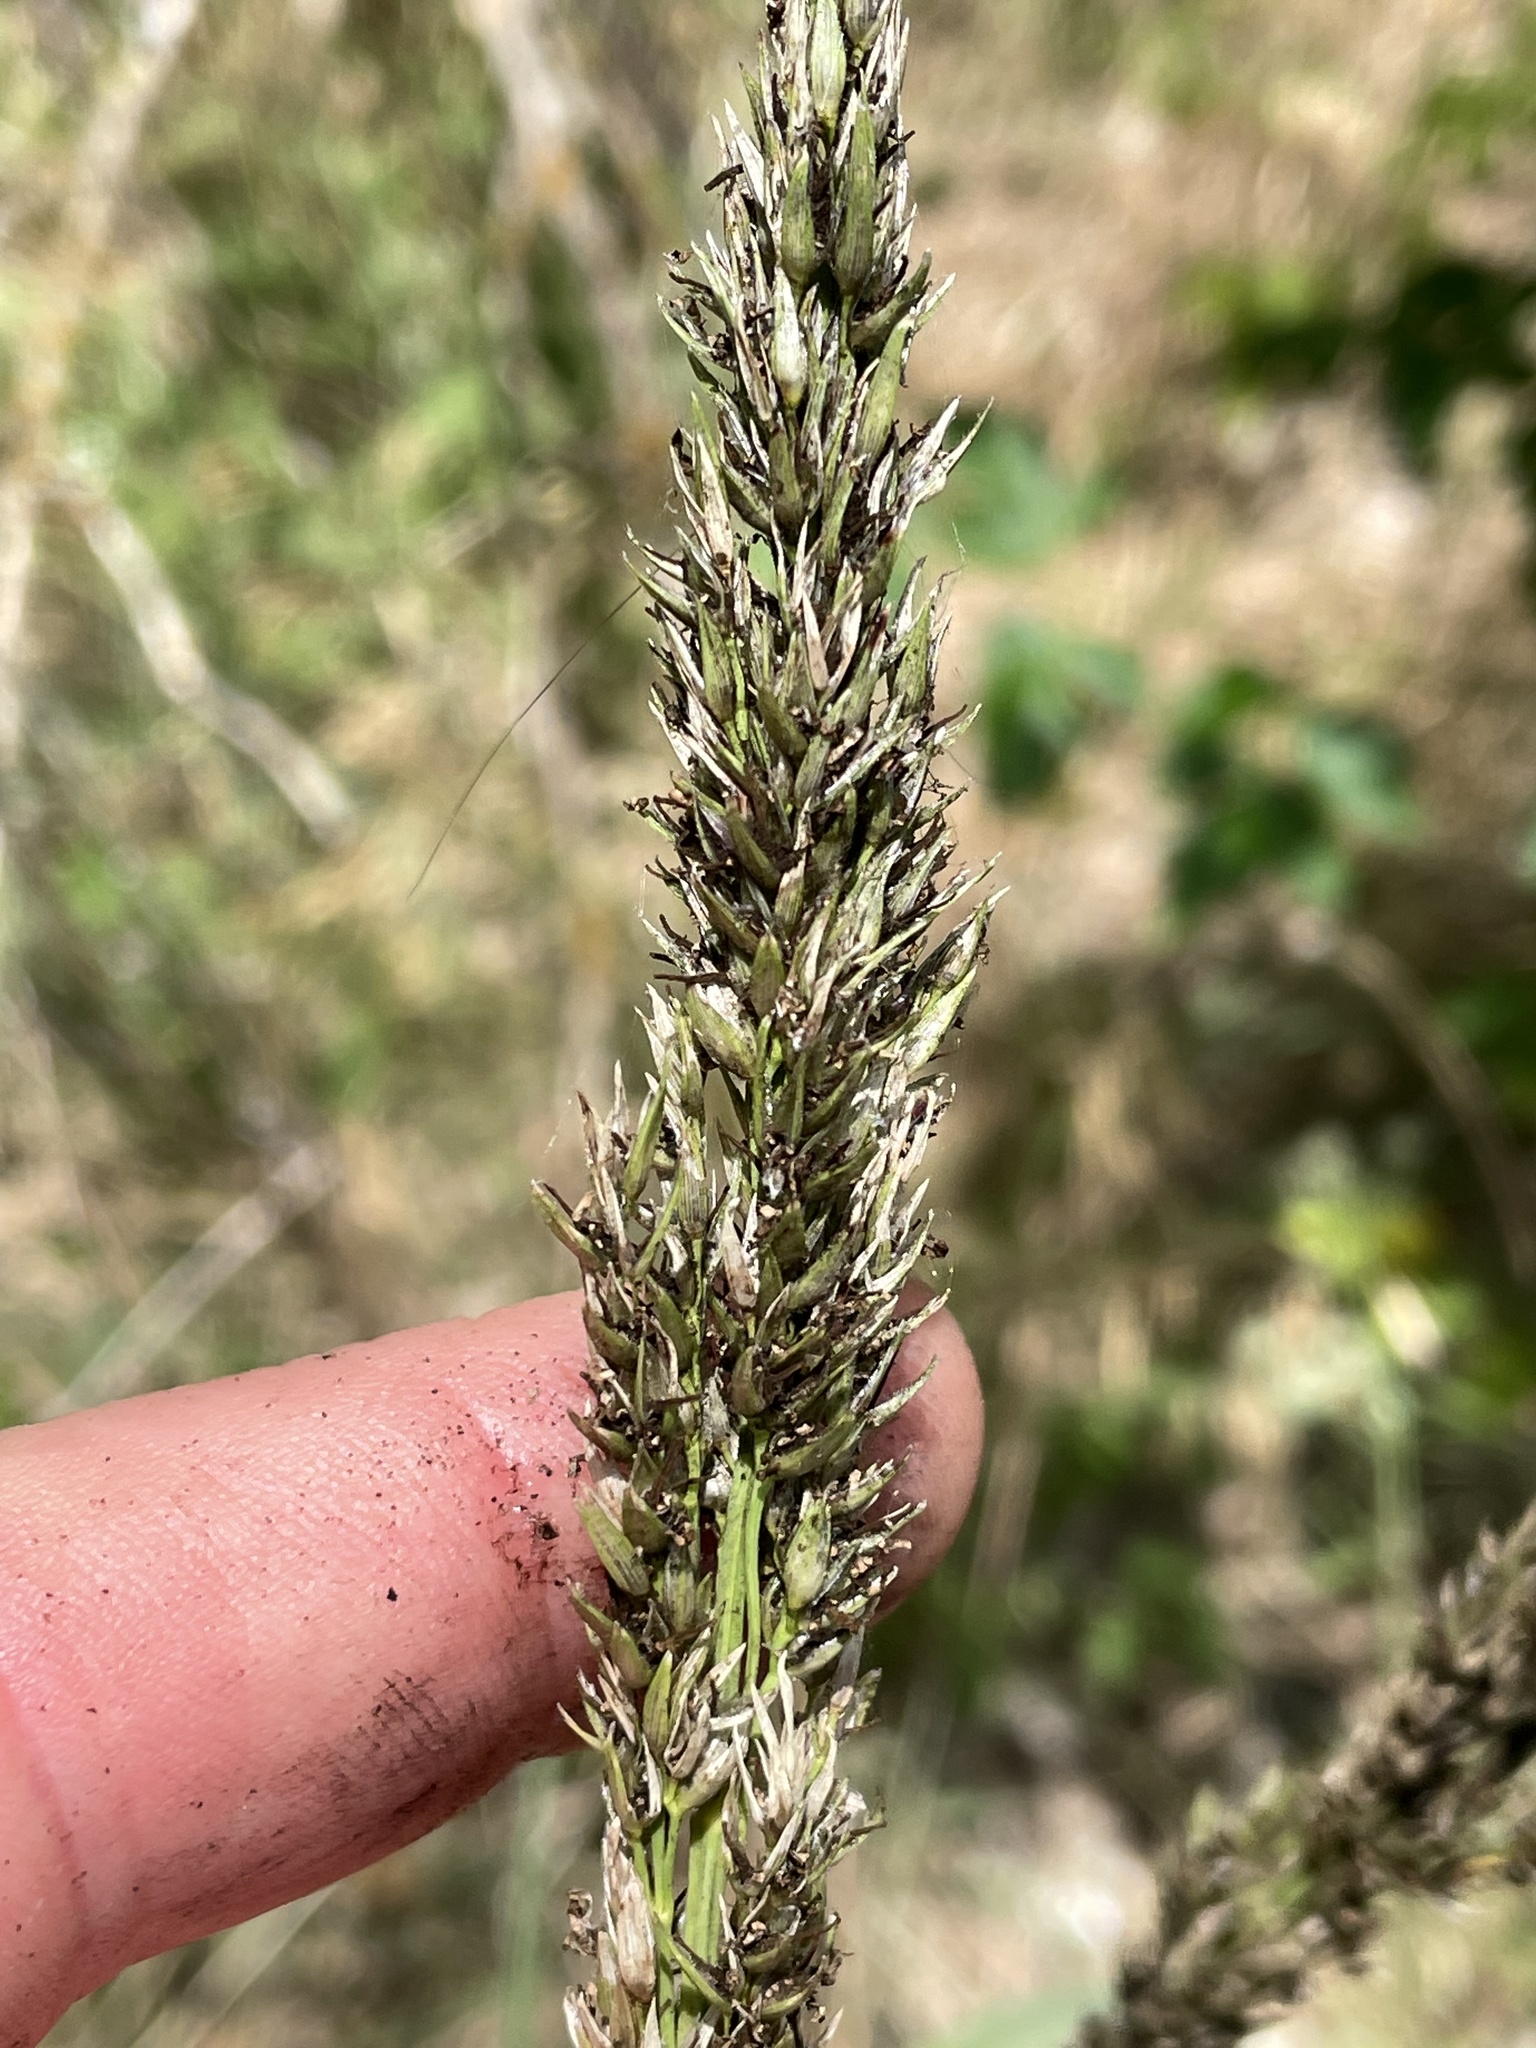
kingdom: Plantae
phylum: Tracheophyta
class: Liliopsida
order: Poales
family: Poaceae
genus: Sorghum
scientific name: Sorghum halepense
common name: Johnson-grass
